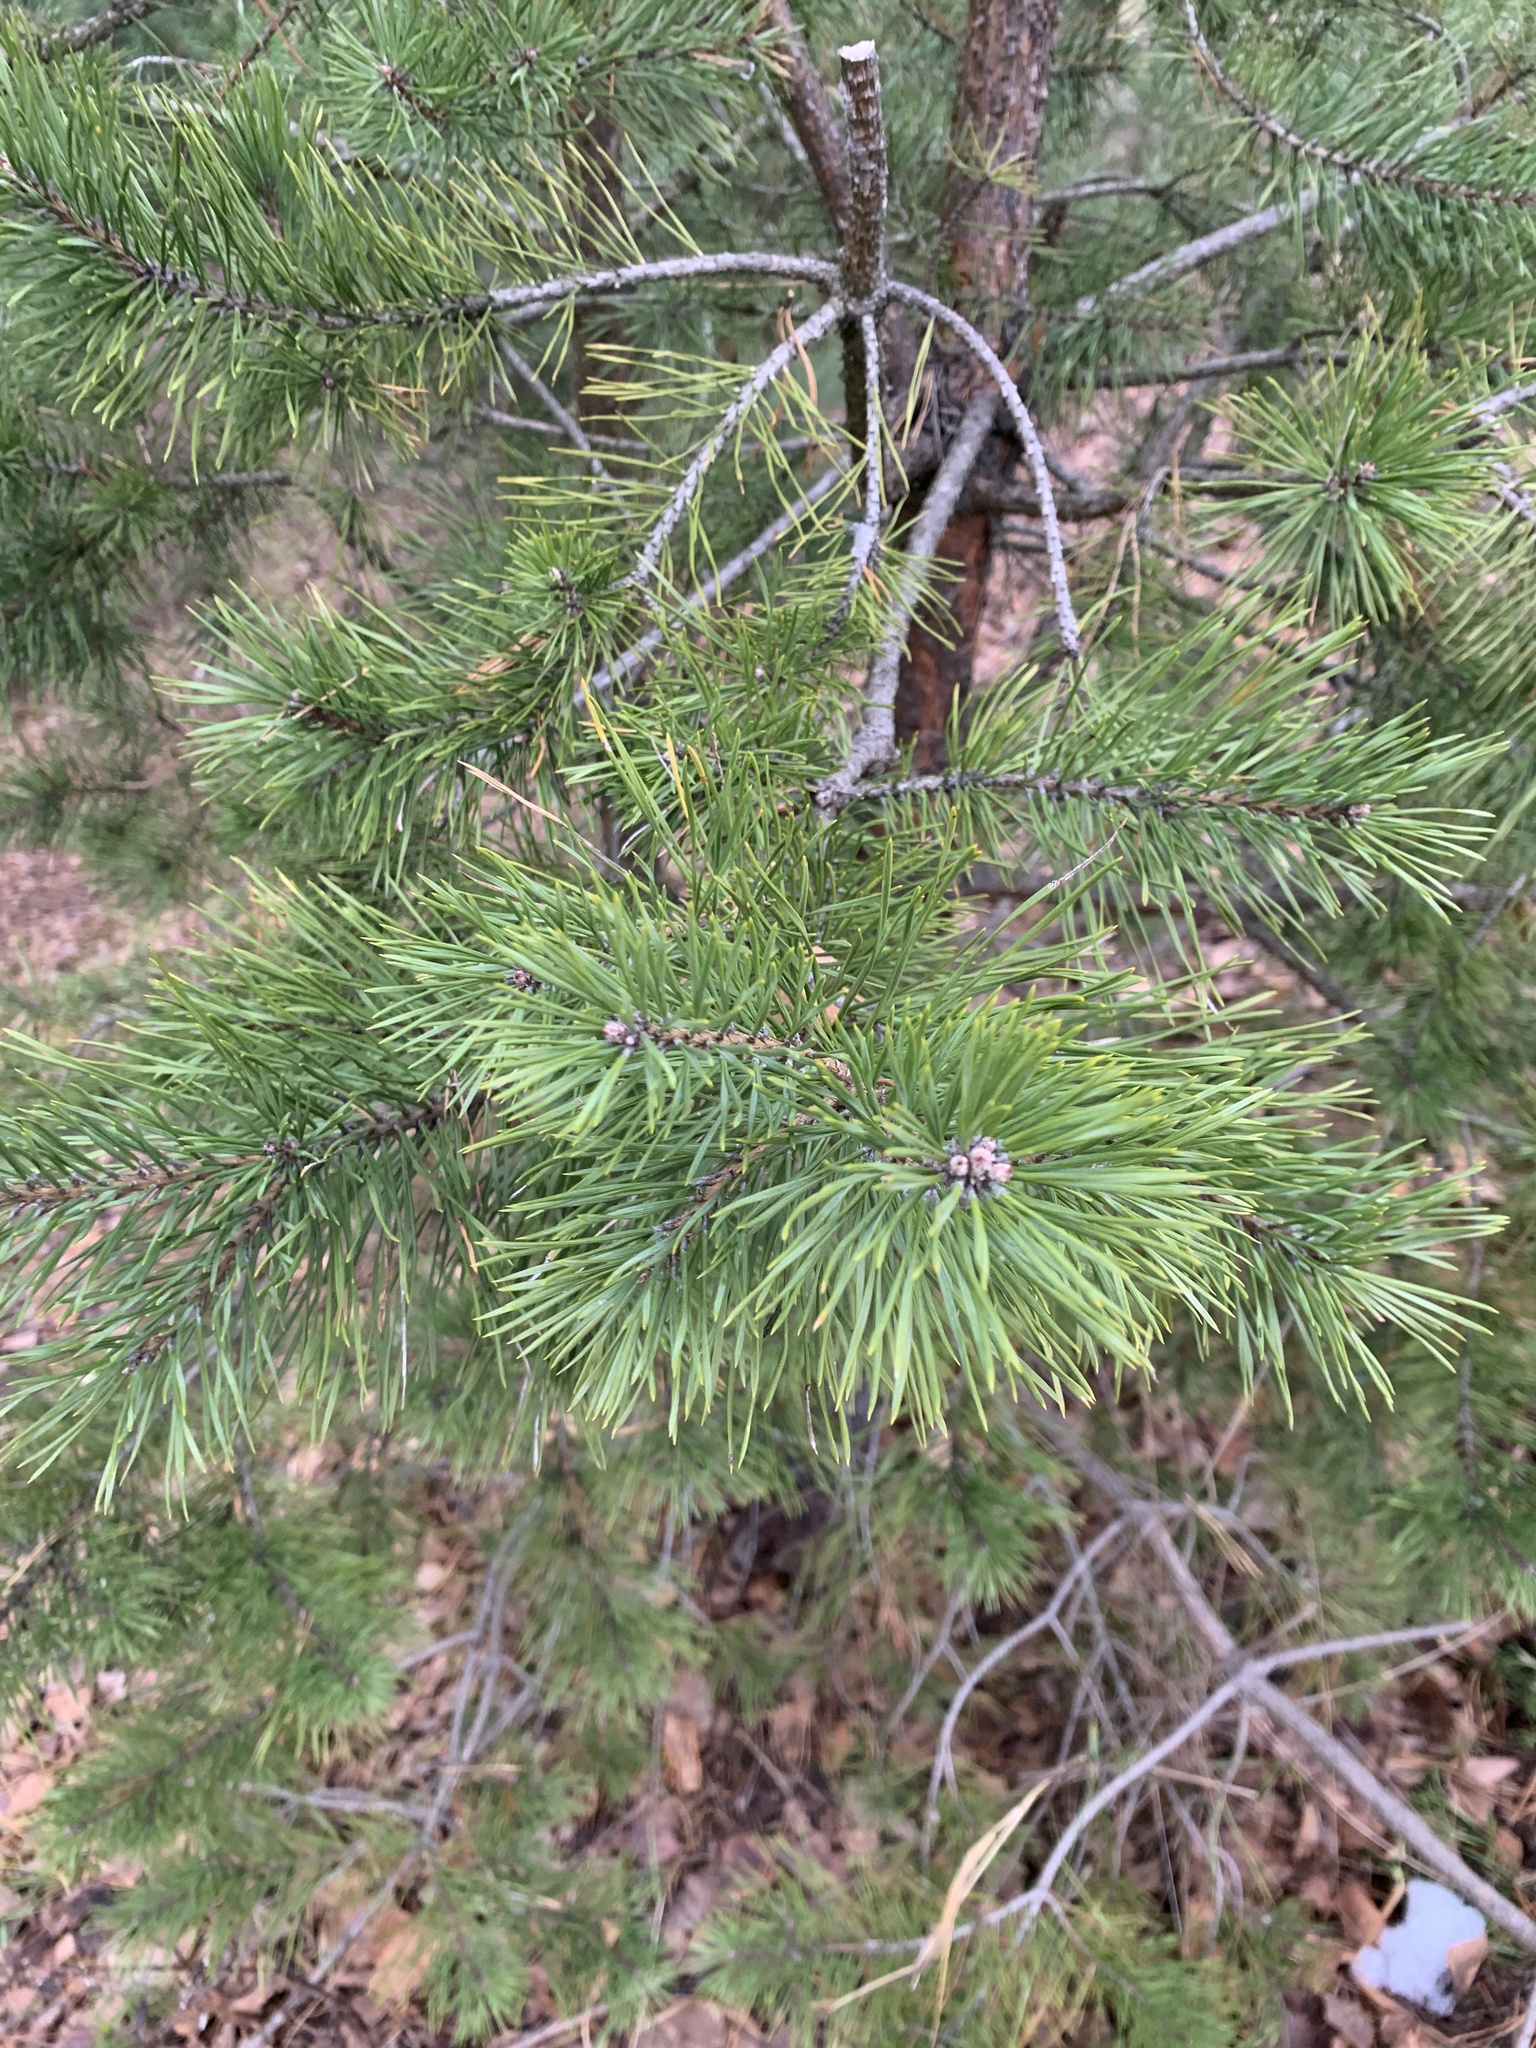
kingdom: Plantae
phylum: Tracheophyta
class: Pinopsida
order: Pinales
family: Pinaceae
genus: Pinus
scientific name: Pinus sylvestris
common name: Scots pine
